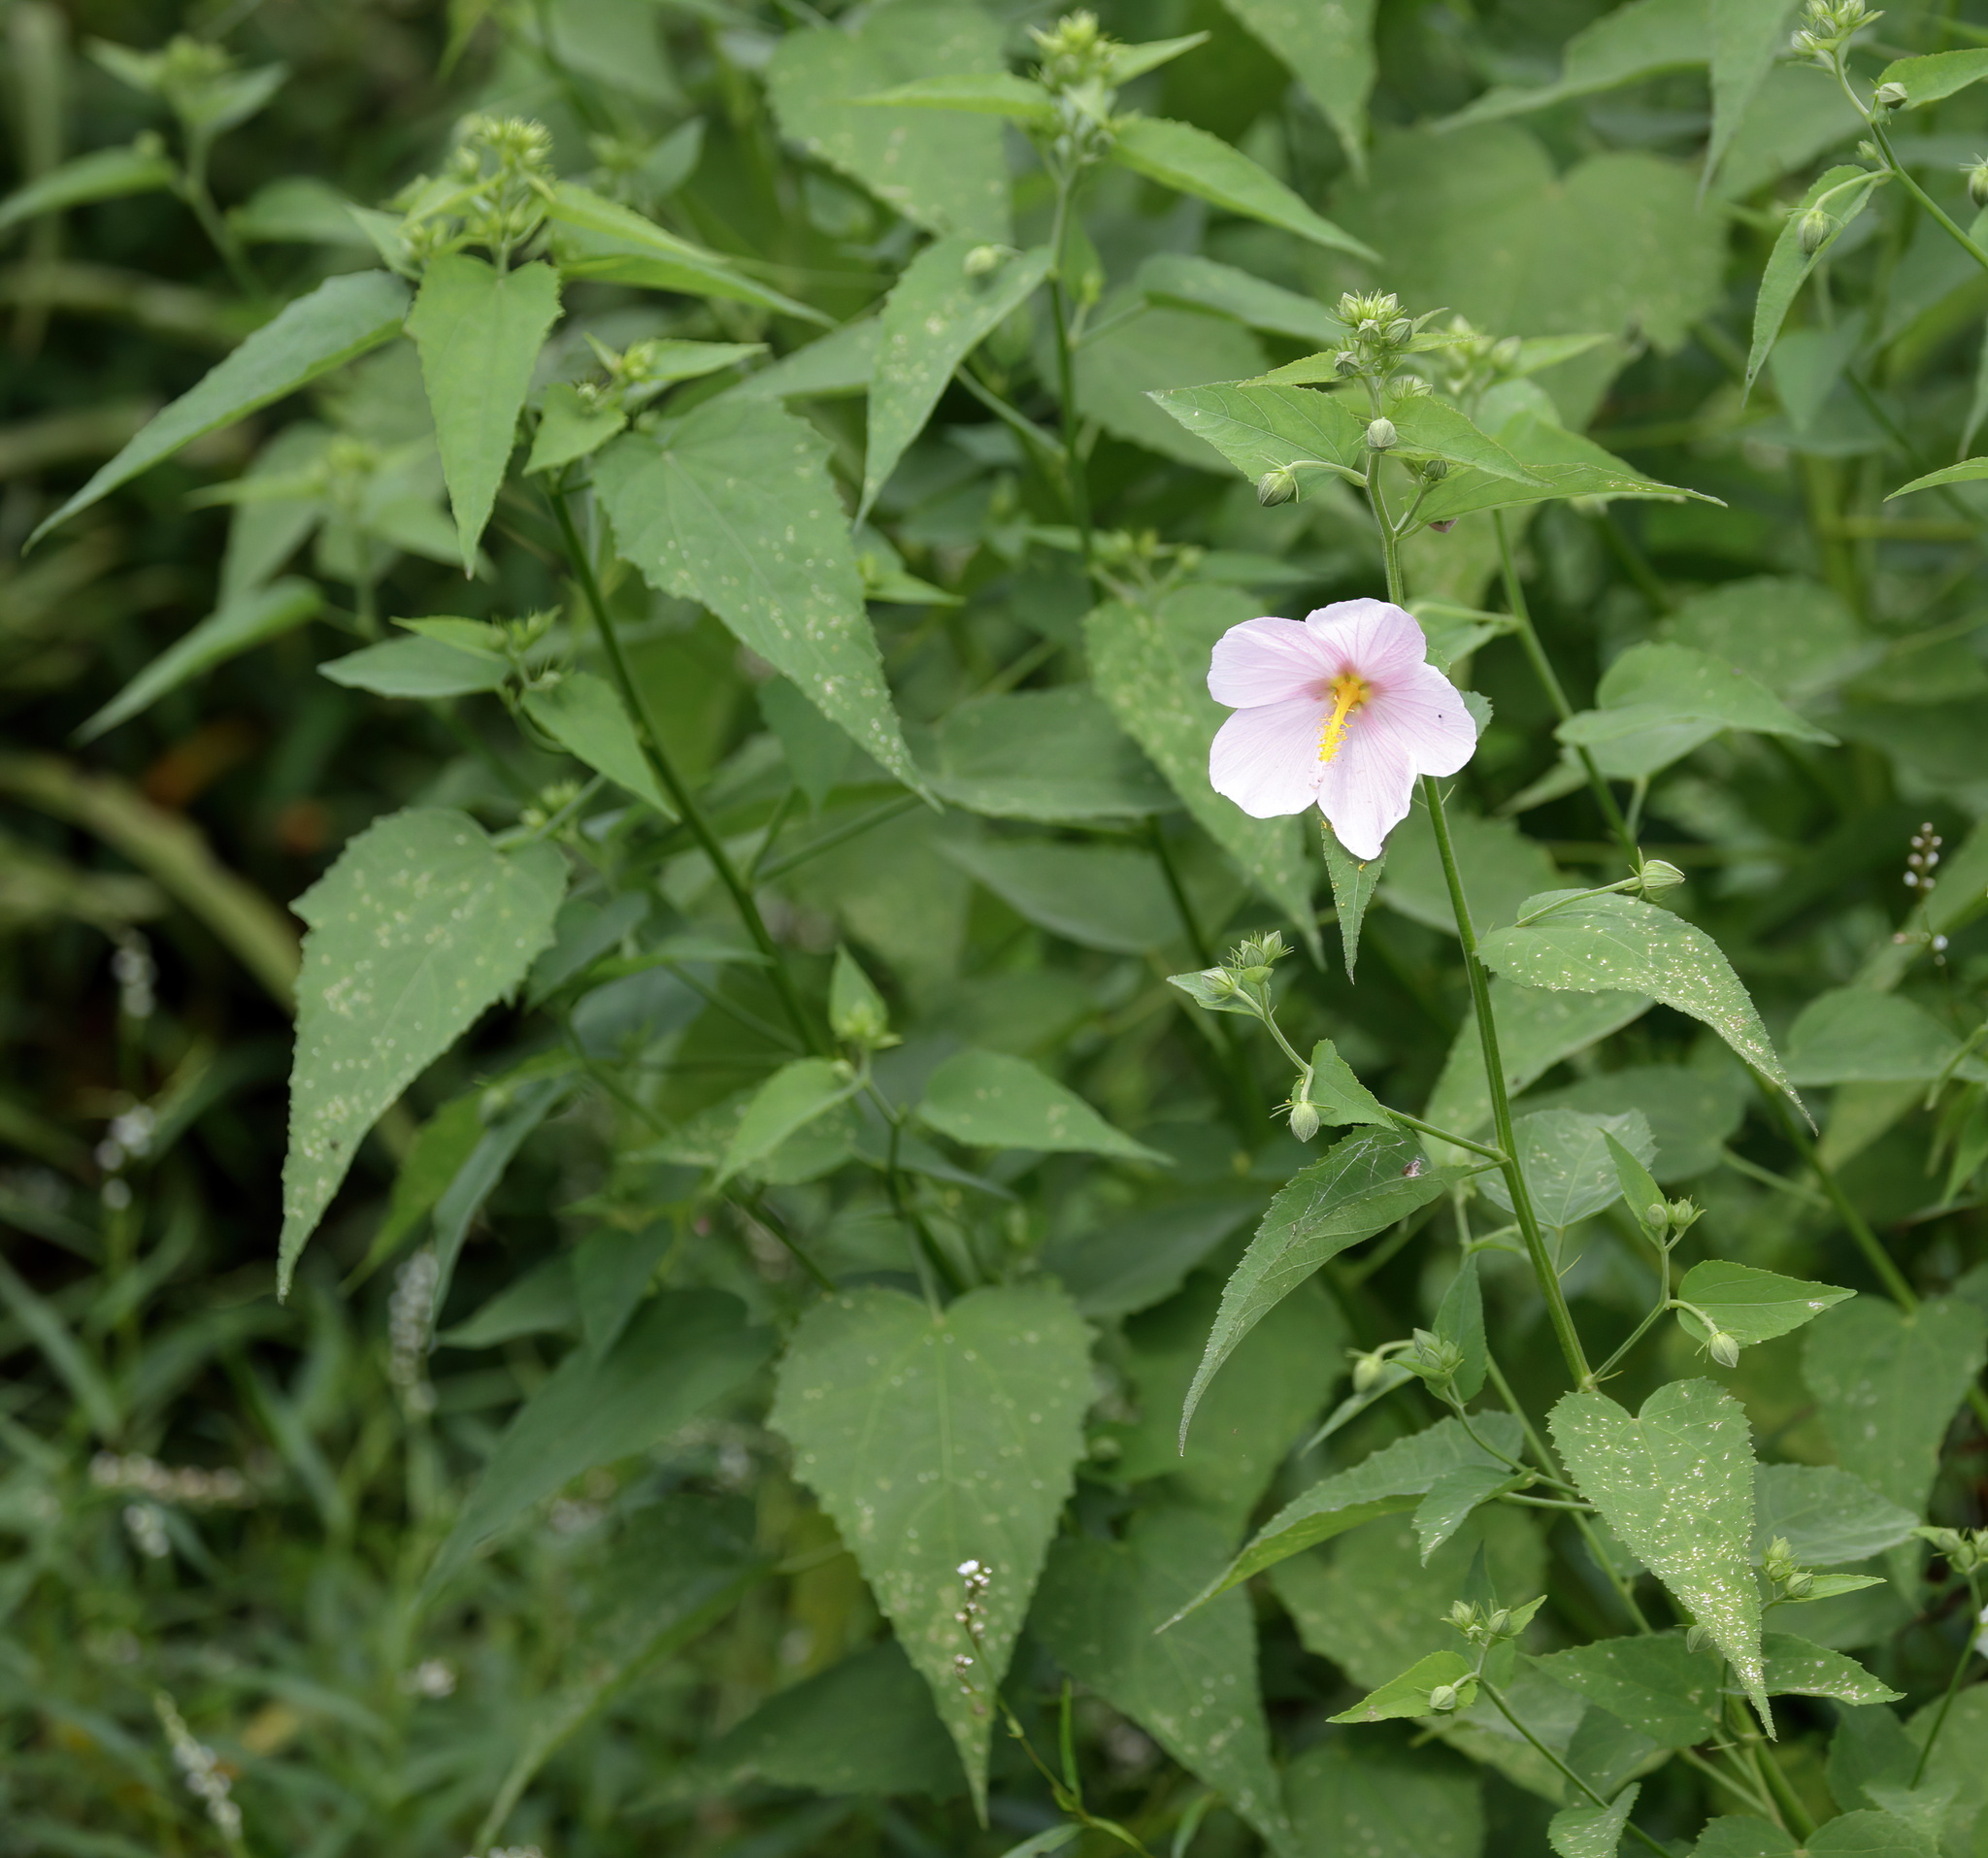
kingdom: Plantae
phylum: Tracheophyta
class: Magnoliopsida
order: Malvales
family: Malvaceae
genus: Kosteletzkya
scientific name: Kosteletzkya pentacarpos
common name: Virginia saltmarsh mallow
